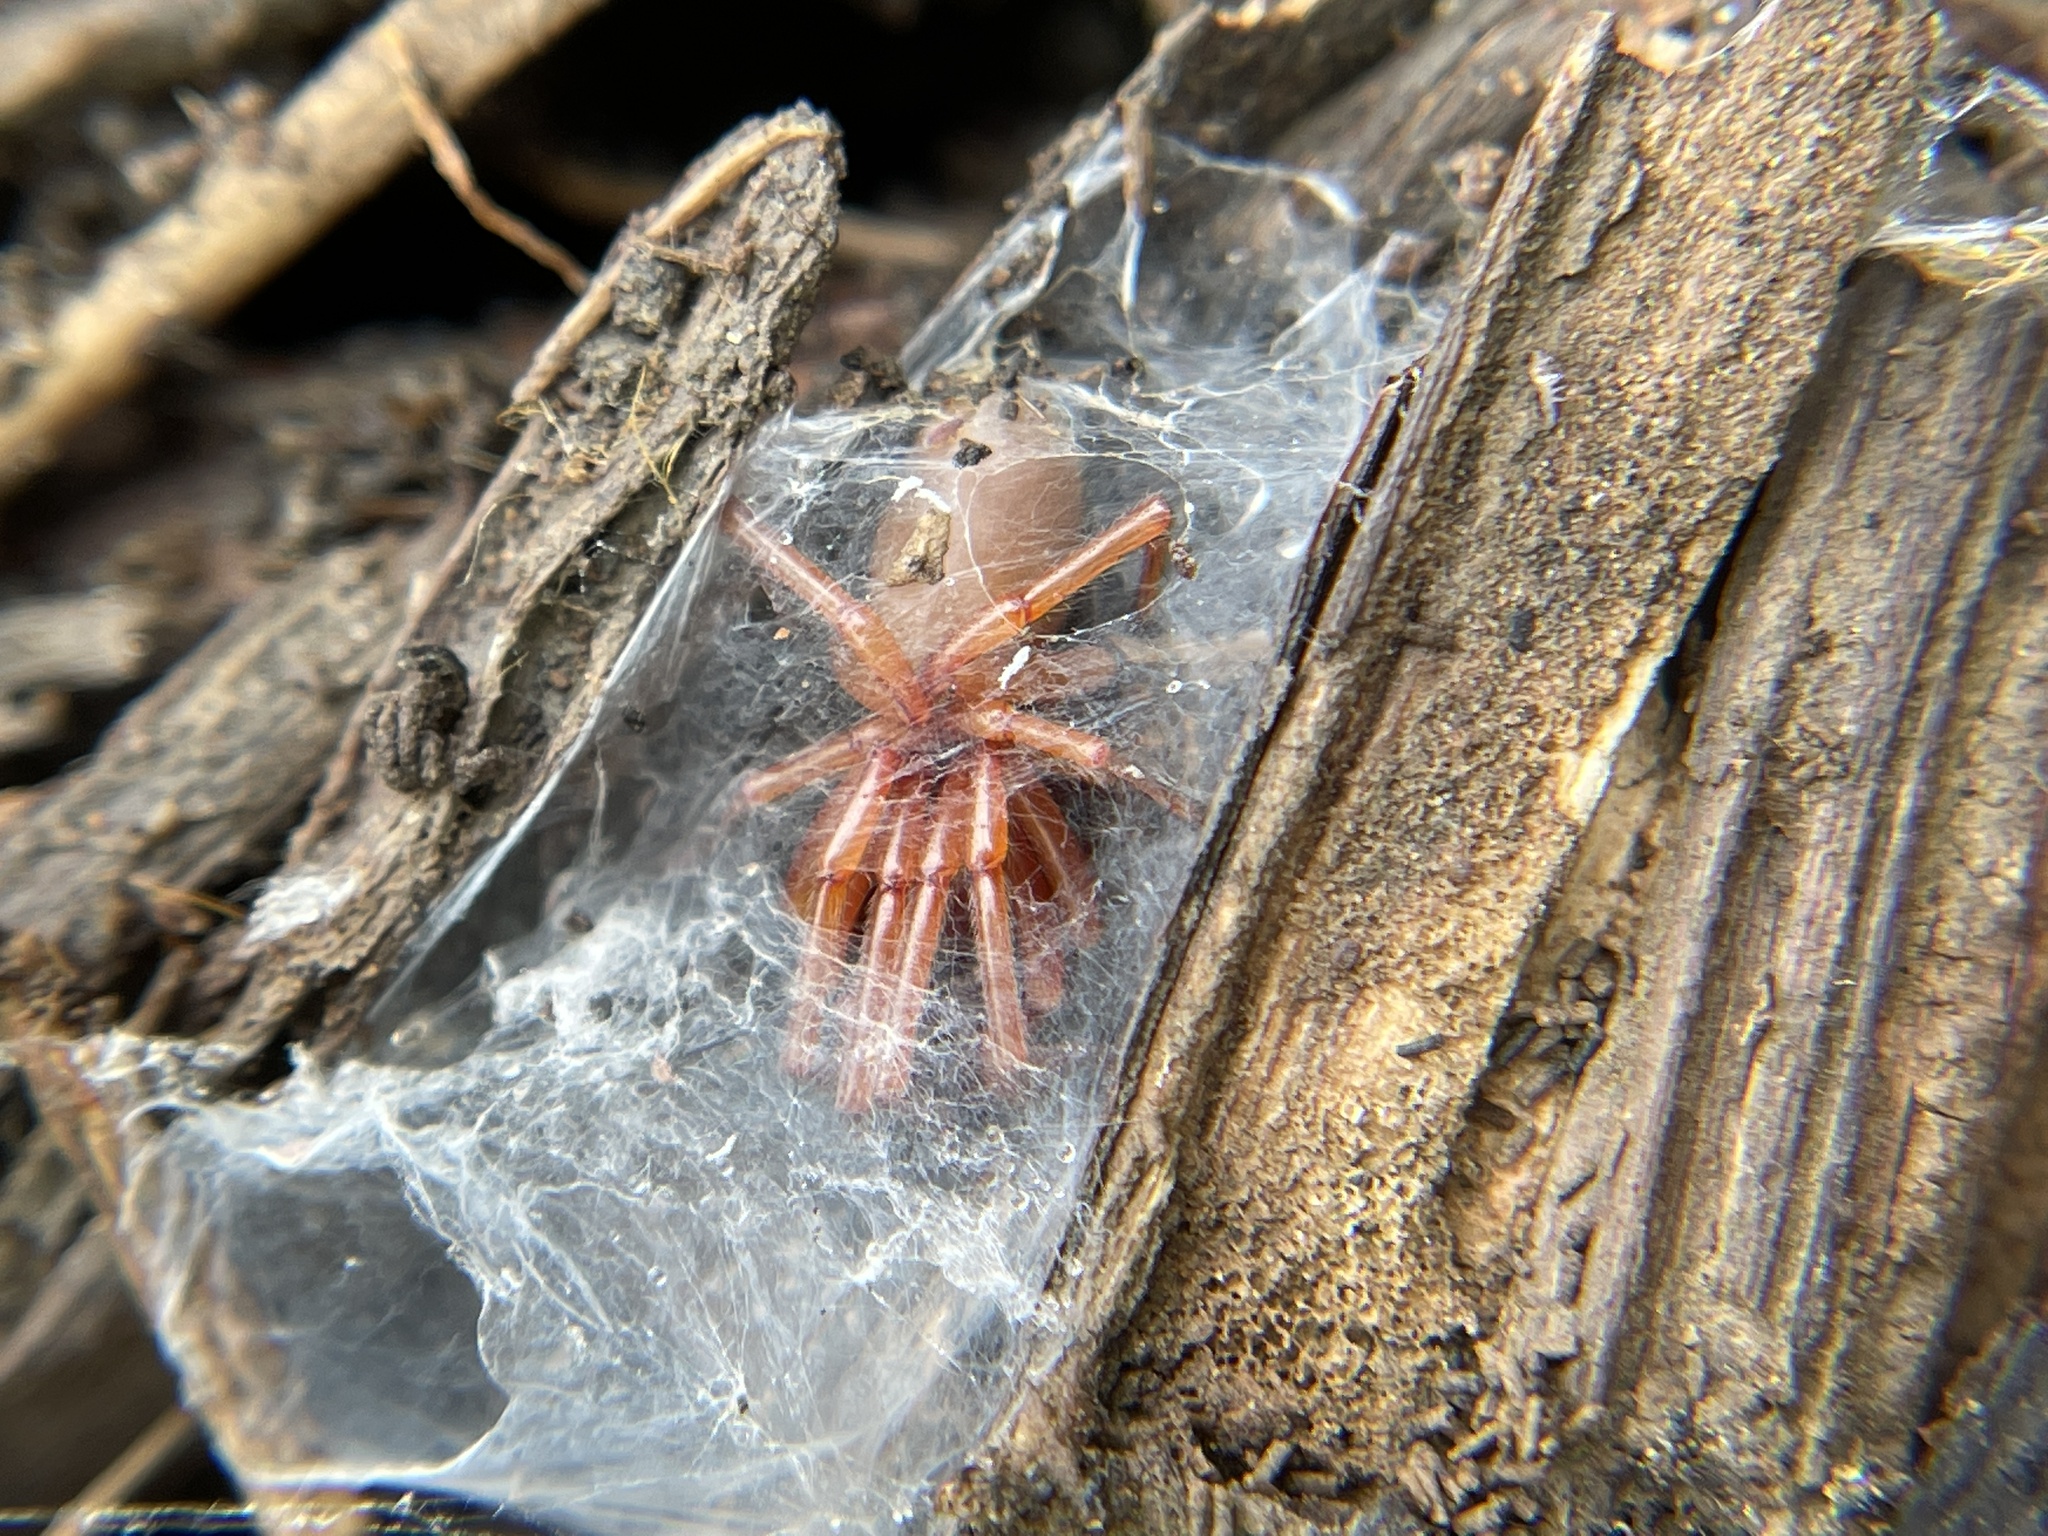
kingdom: Animalia
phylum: Arthropoda
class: Arachnida
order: Araneae
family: Dysderidae
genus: Dysdera
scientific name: Dysdera crocata
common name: Woodlouse spider
